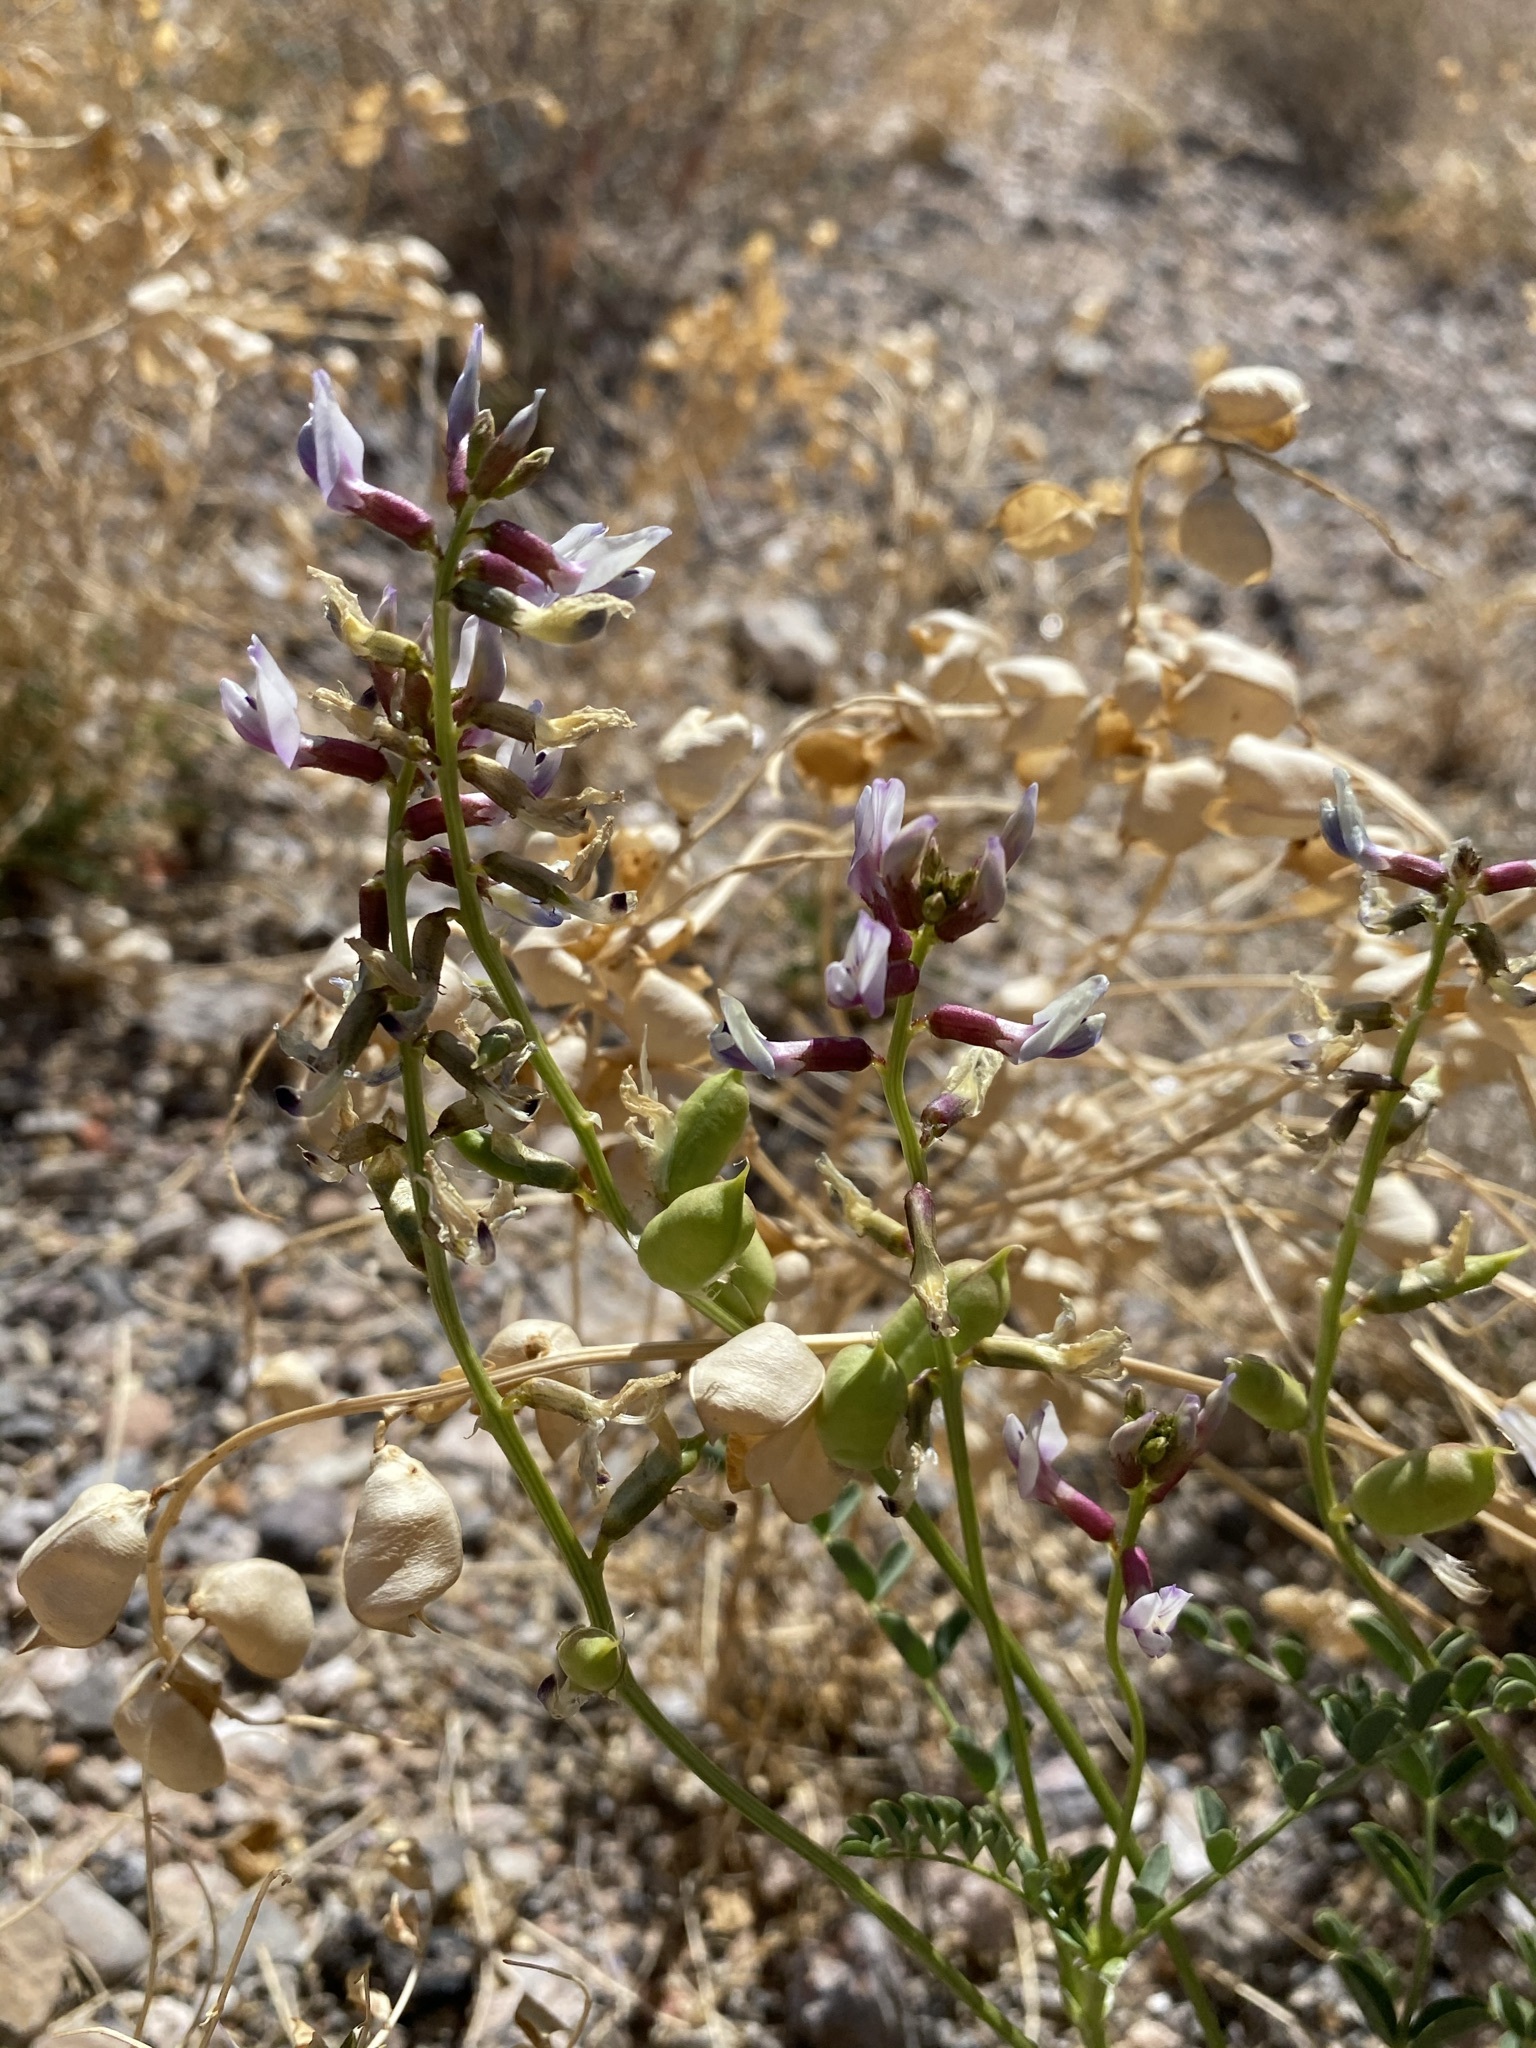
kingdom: Plantae
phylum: Tracheophyta
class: Magnoliopsida
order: Fabales
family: Fabaceae
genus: Astragalus
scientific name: Astragalus preussii
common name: Preuss's milk-vetch
